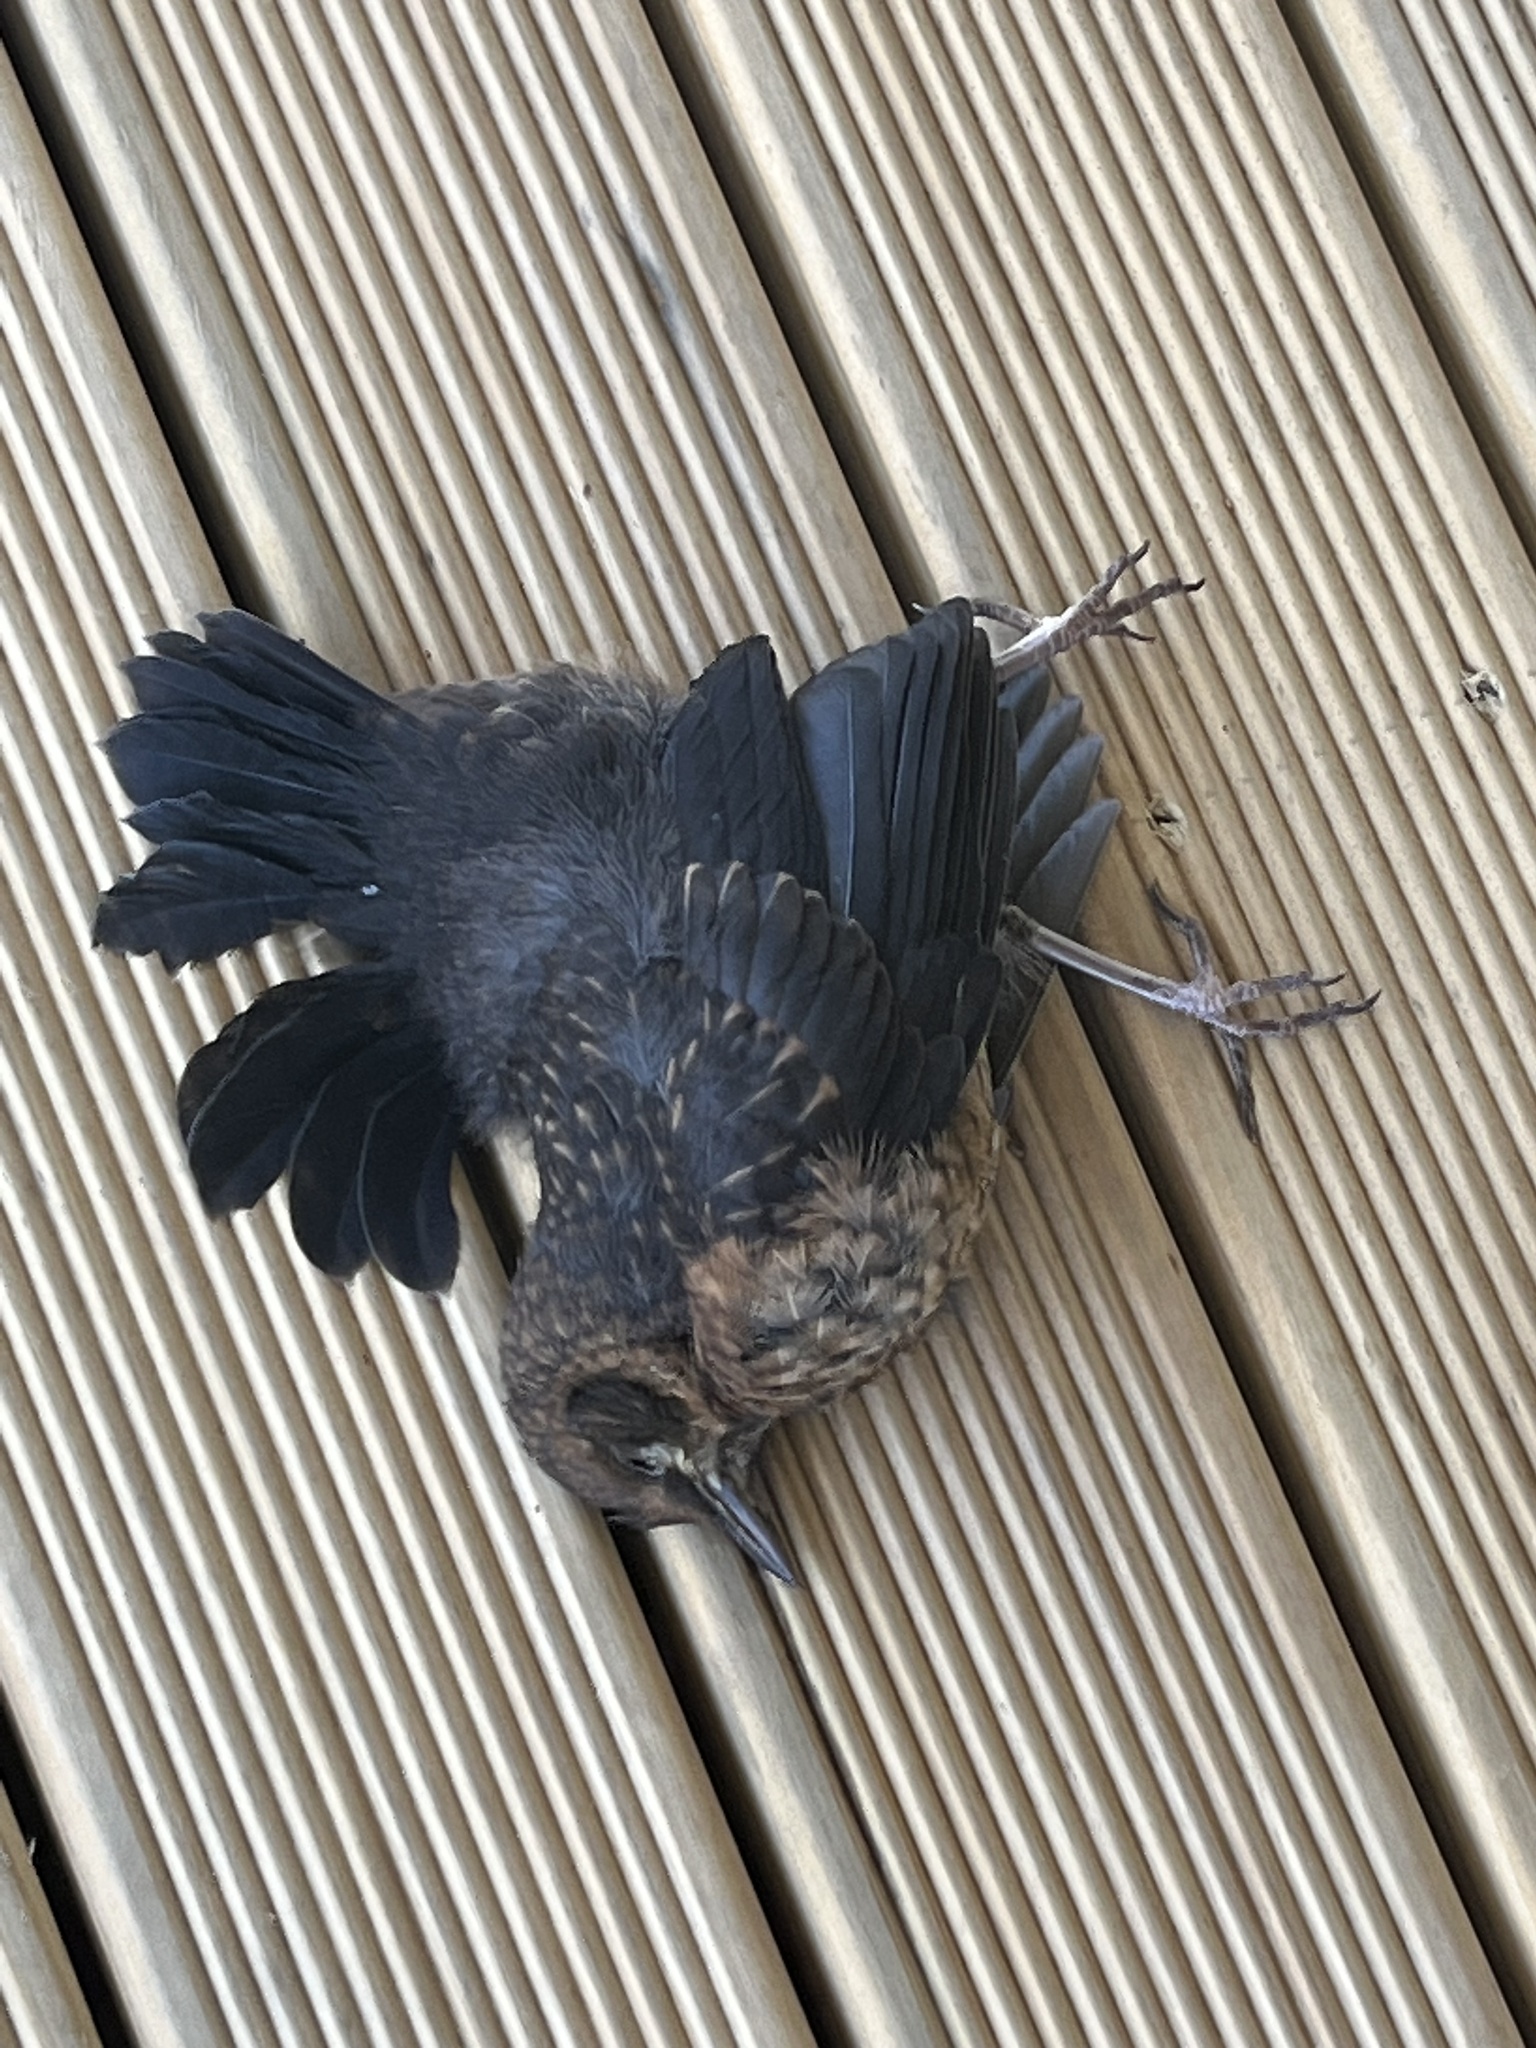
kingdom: Animalia
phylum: Chordata
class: Aves
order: Passeriformes
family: Turdidae
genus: Turdus
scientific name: Turdus merula
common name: Common blackbird
